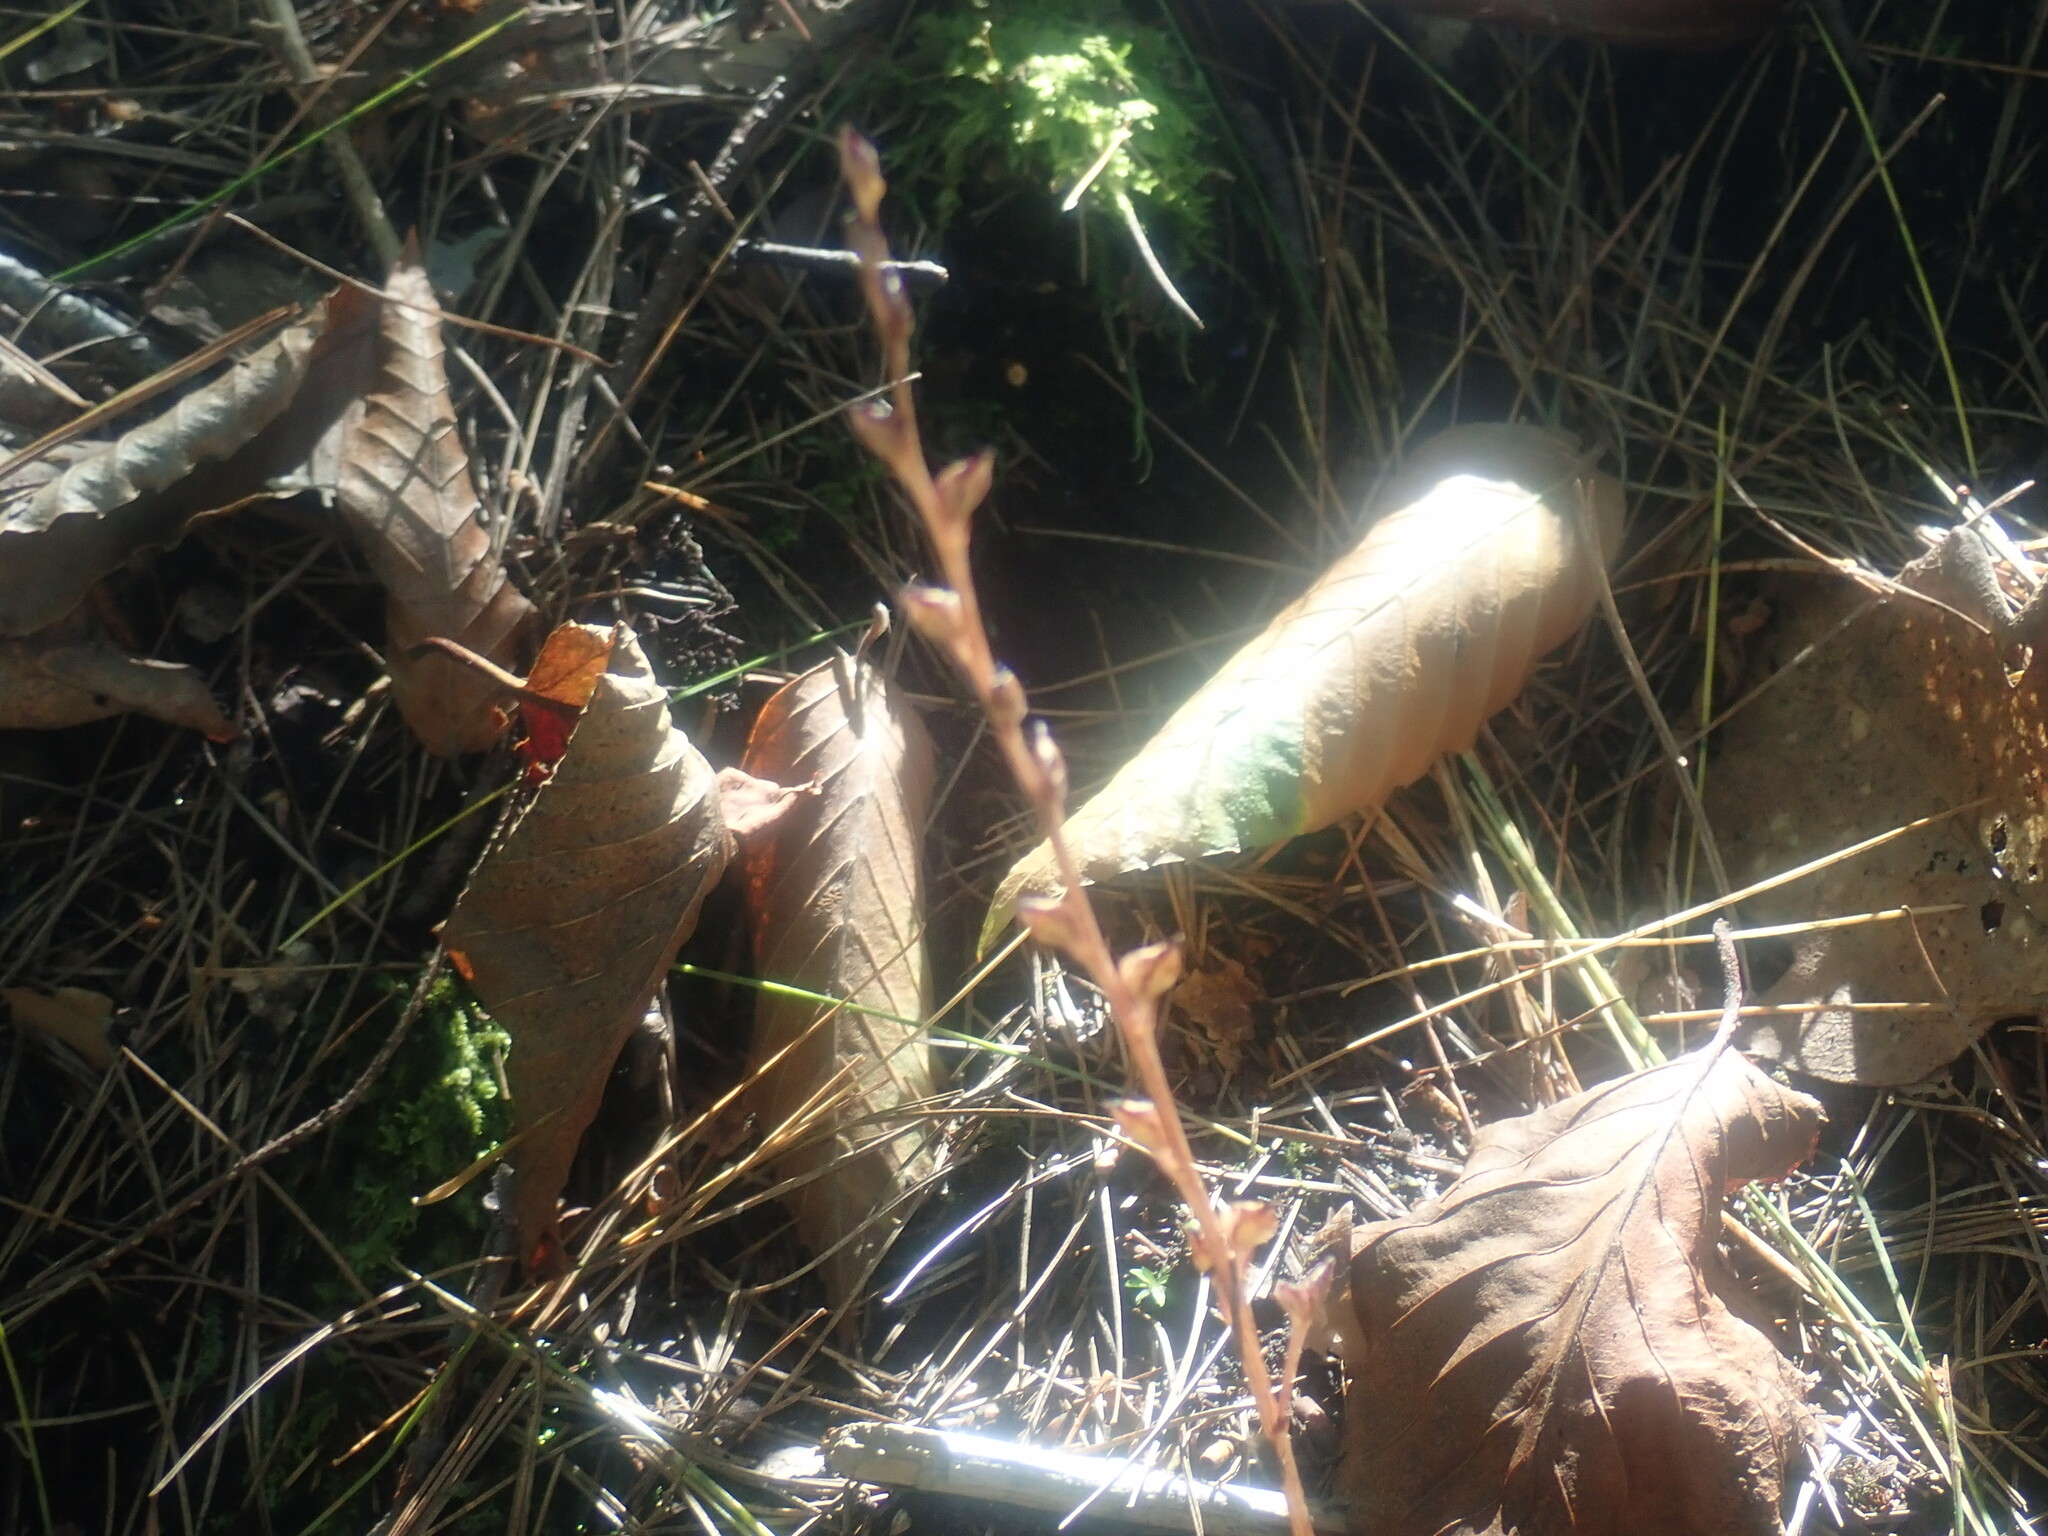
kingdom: Plantae
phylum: Tracheophyta
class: Magnoliopsida
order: Lamiales
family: Orobanchaceae
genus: Epifagus
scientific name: Epifagus virginiana
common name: Beechdrops
